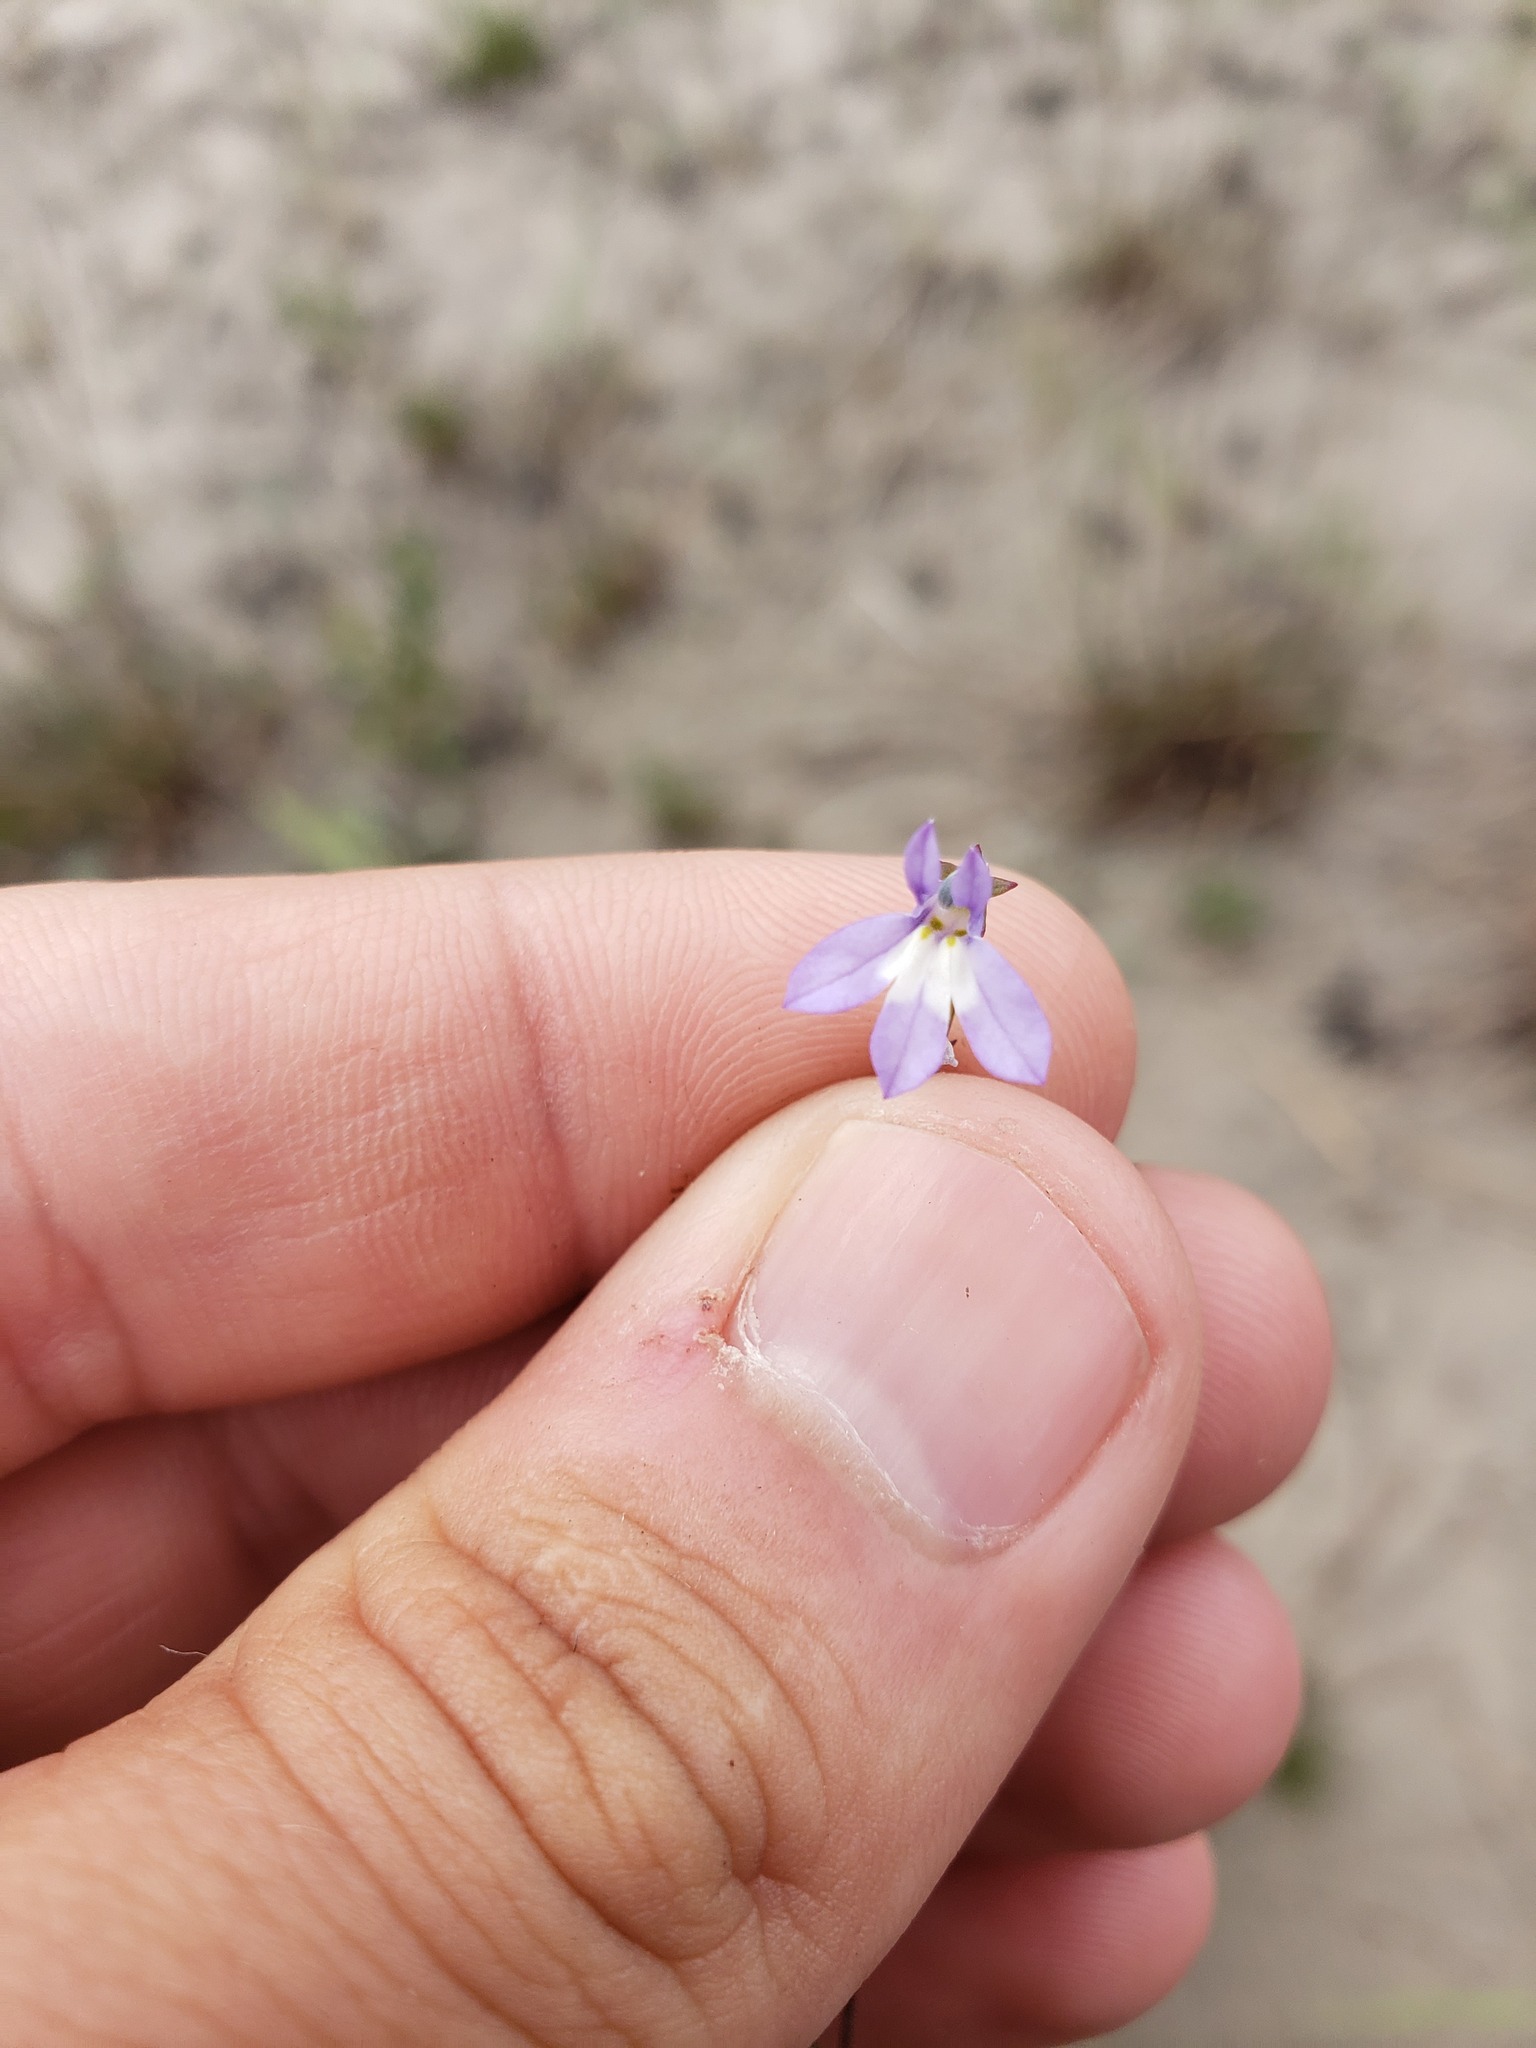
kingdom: Plantae
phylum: Tracheophyta
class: Magnoliopsida
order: Asterales
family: Campanulaceae
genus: Lobelia
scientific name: Lobelia kalmii
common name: Kalm's lobelia
